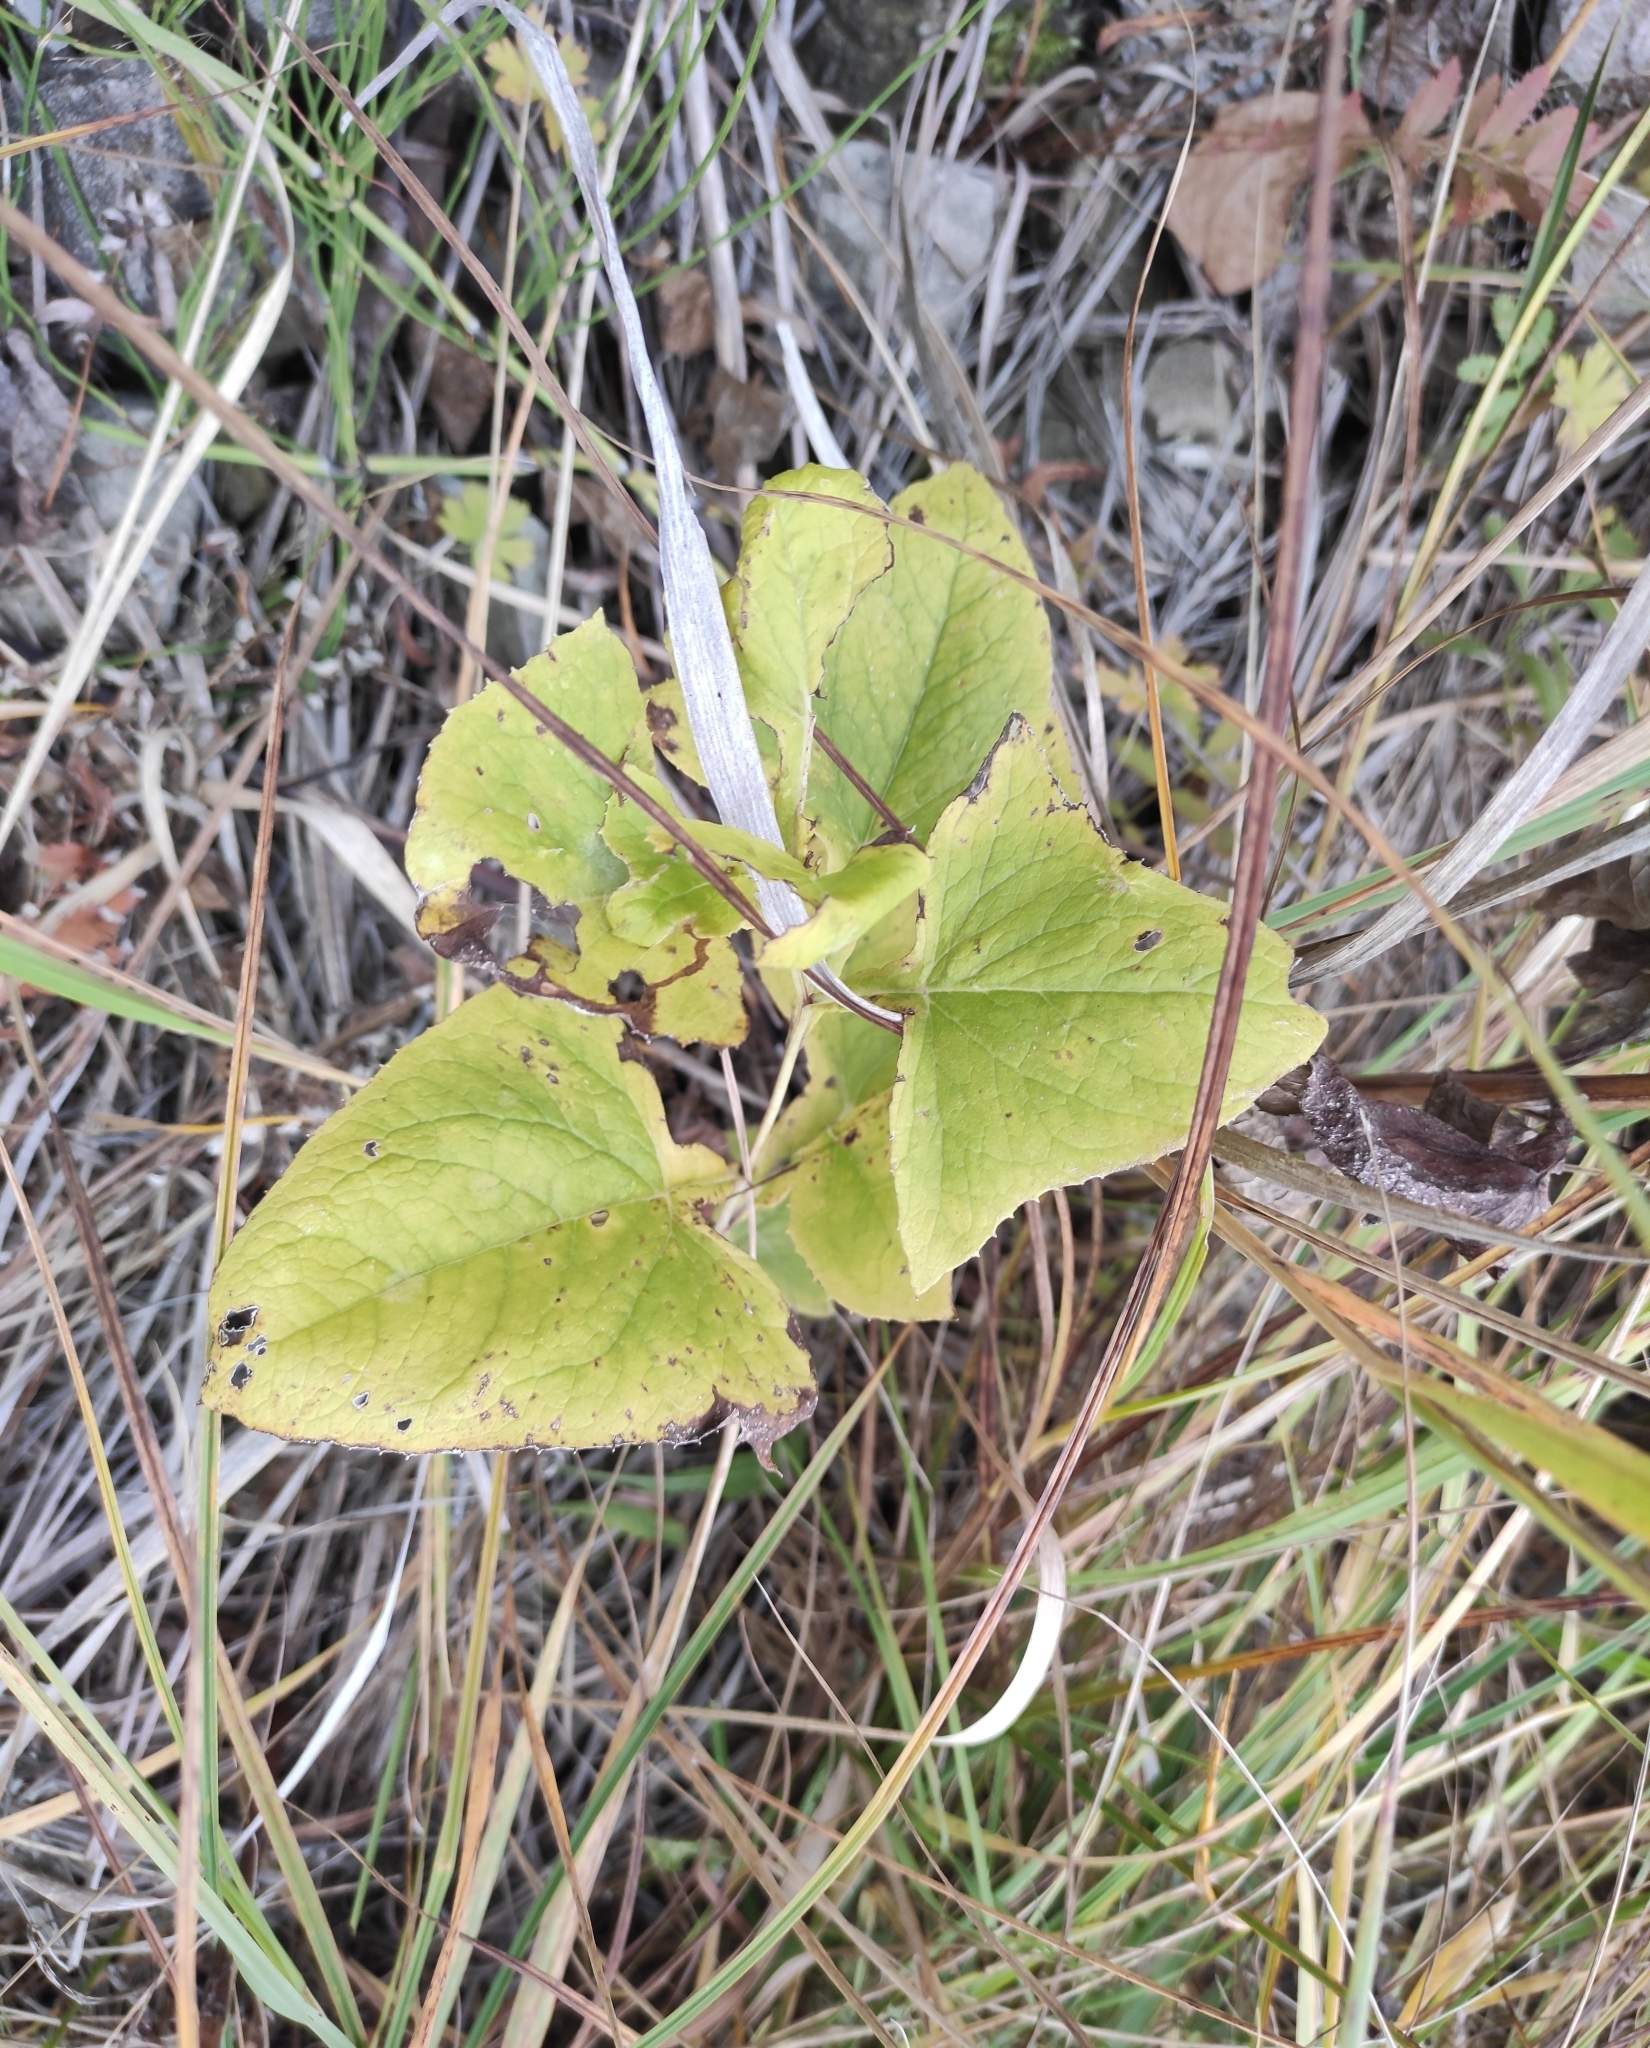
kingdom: Plantae
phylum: Tracheophyta
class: Magnoliopsida
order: Asterales
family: Asteraceae
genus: Parasenecio
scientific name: Parasenecio hastatus
